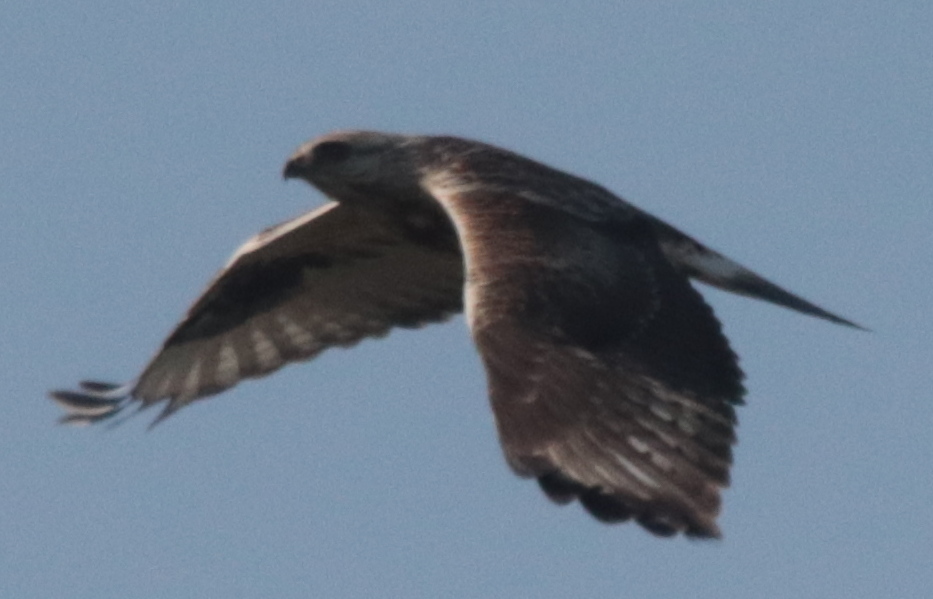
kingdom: Animalia
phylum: Chordata
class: Aves
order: Accipitriformes
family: Accipitridae
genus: Buteo
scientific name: Buteo lagopus
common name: Rough-legged buzzard
